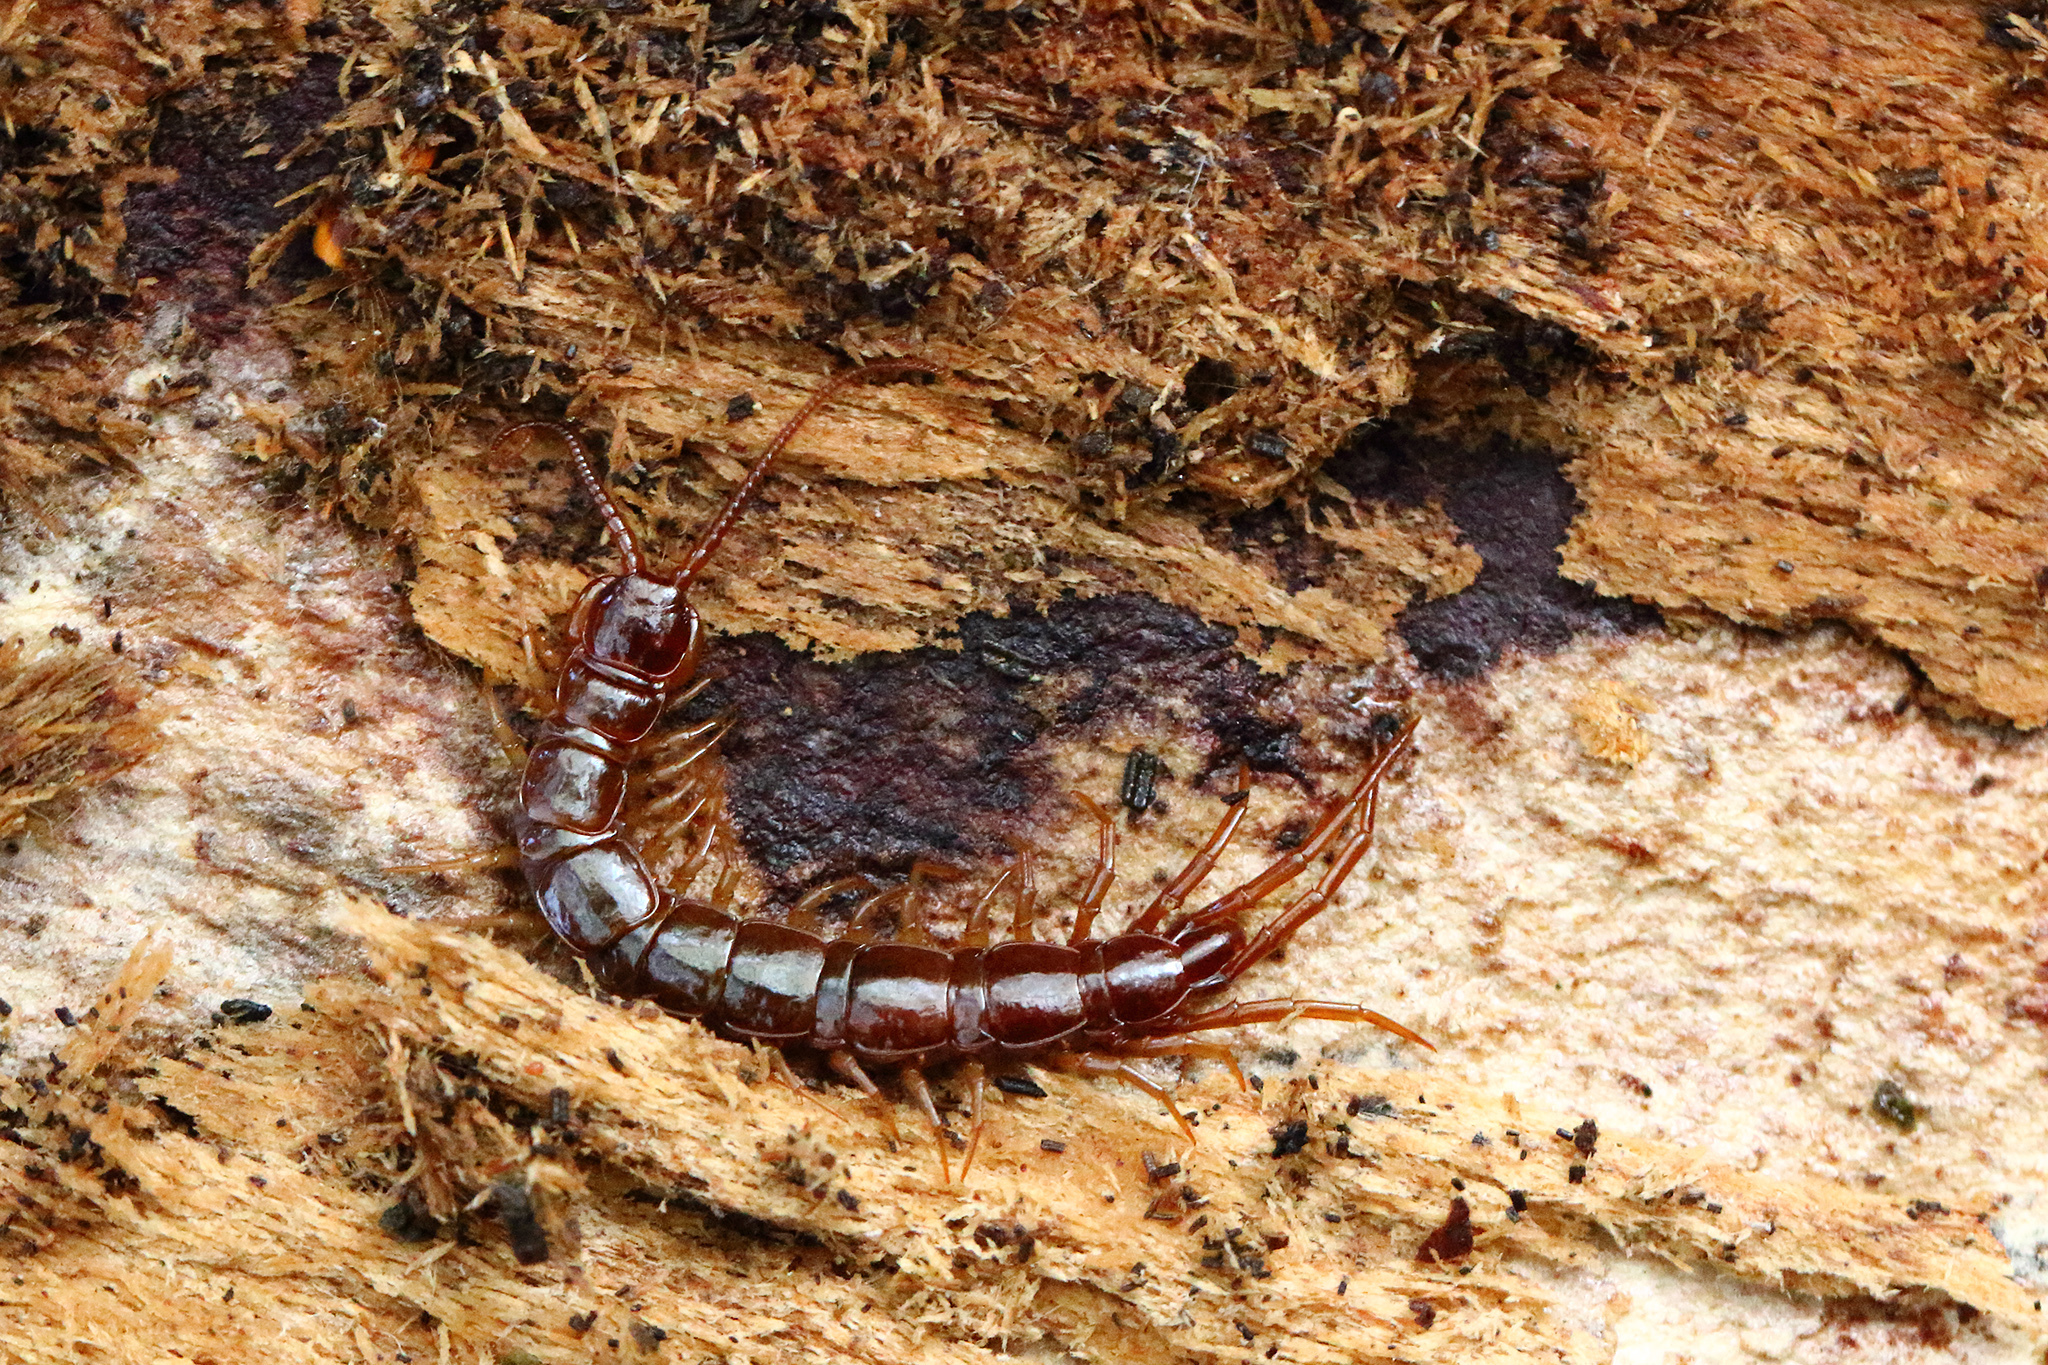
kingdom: Animalia
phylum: Arthropoda
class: Chilopoda
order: Lithobiomorpha
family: Lithobiidae
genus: Lithobius
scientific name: Lithobius forficatus
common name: Centipede
